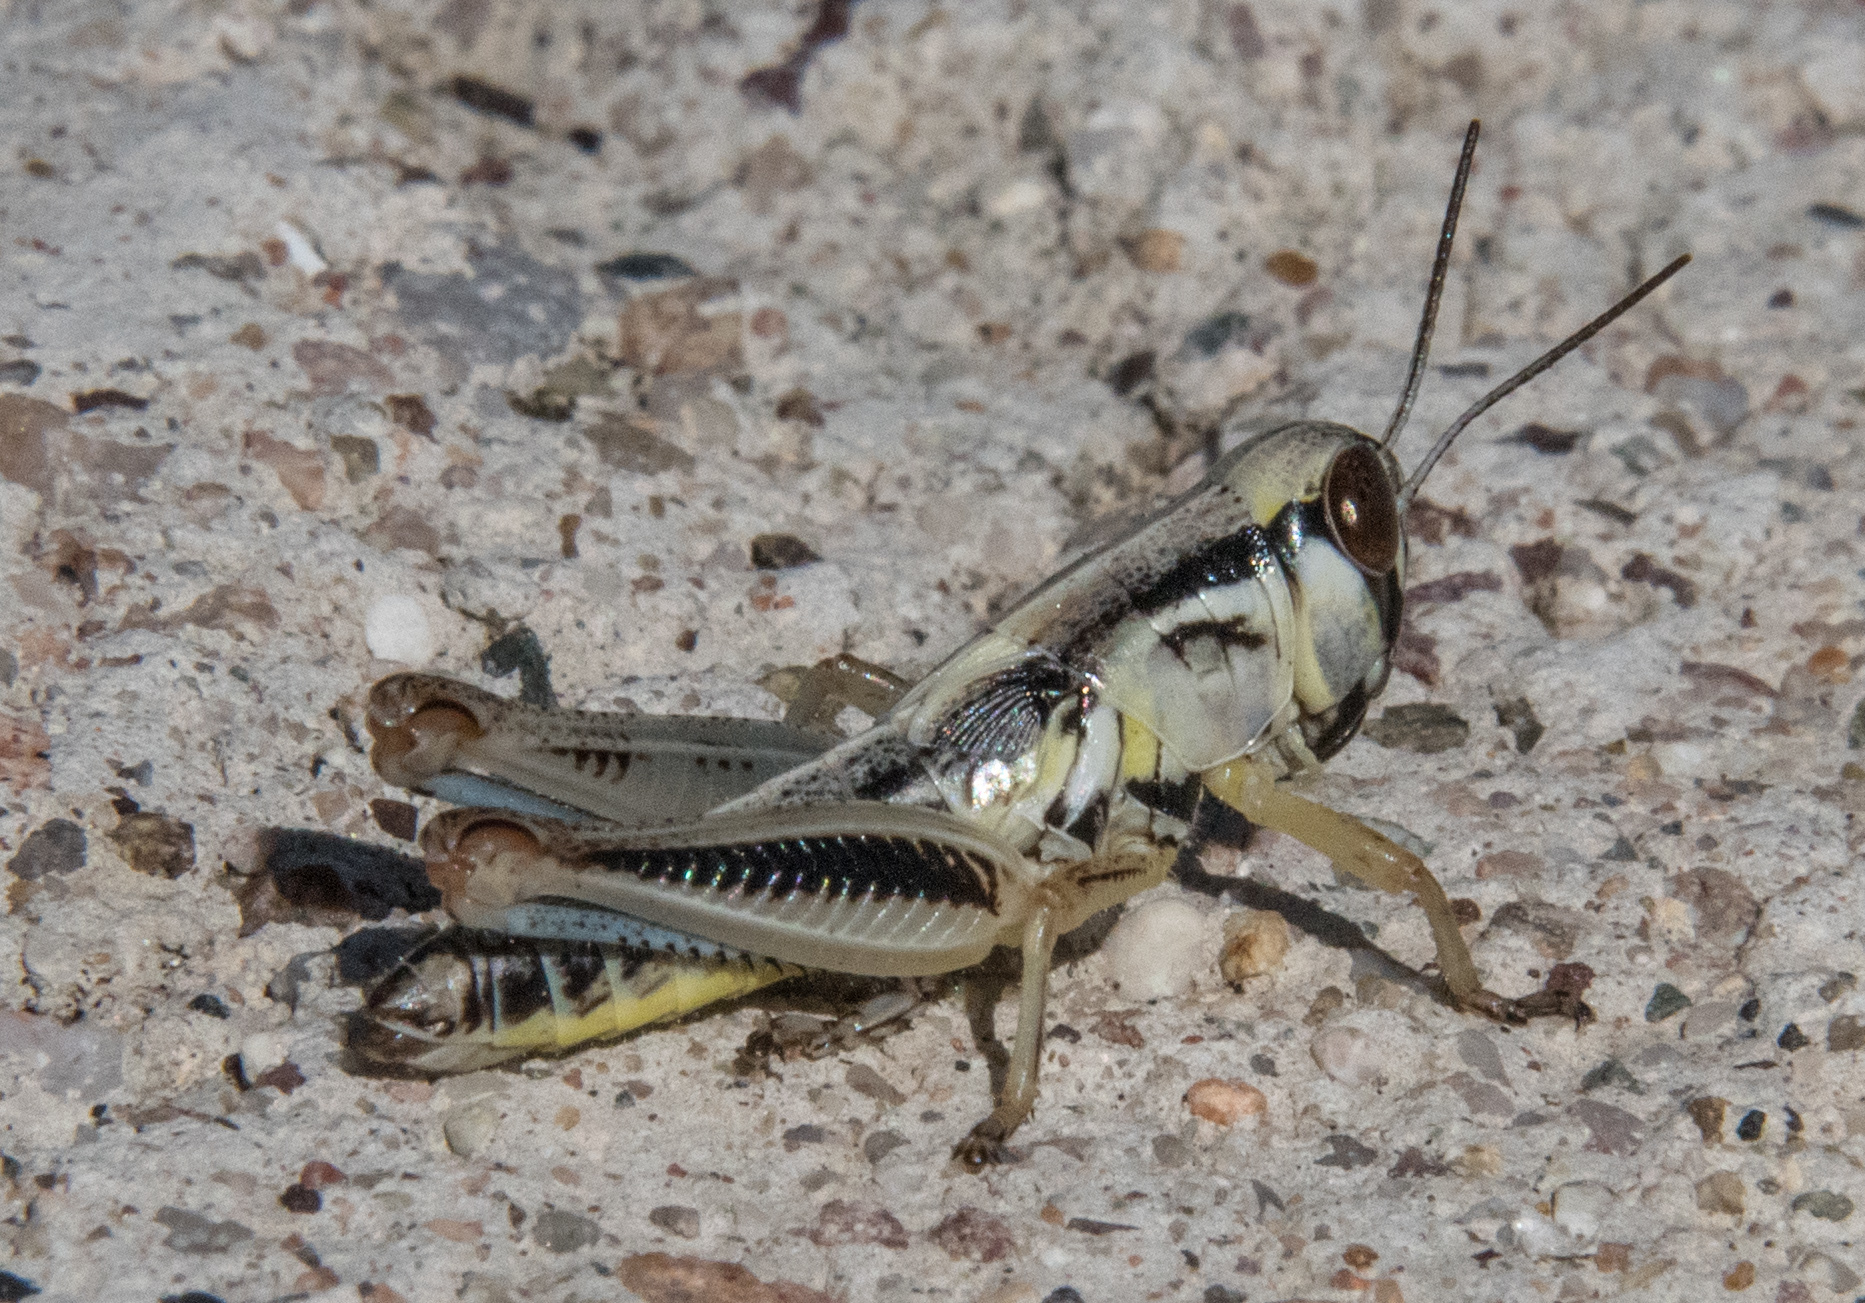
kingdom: Animalia
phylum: Arthropoda
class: Insecta
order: Orthoptera
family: Acrididae
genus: Phoetaliotes
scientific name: Phoetaliotes nebrascensis
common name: Large-headed grasshopper
